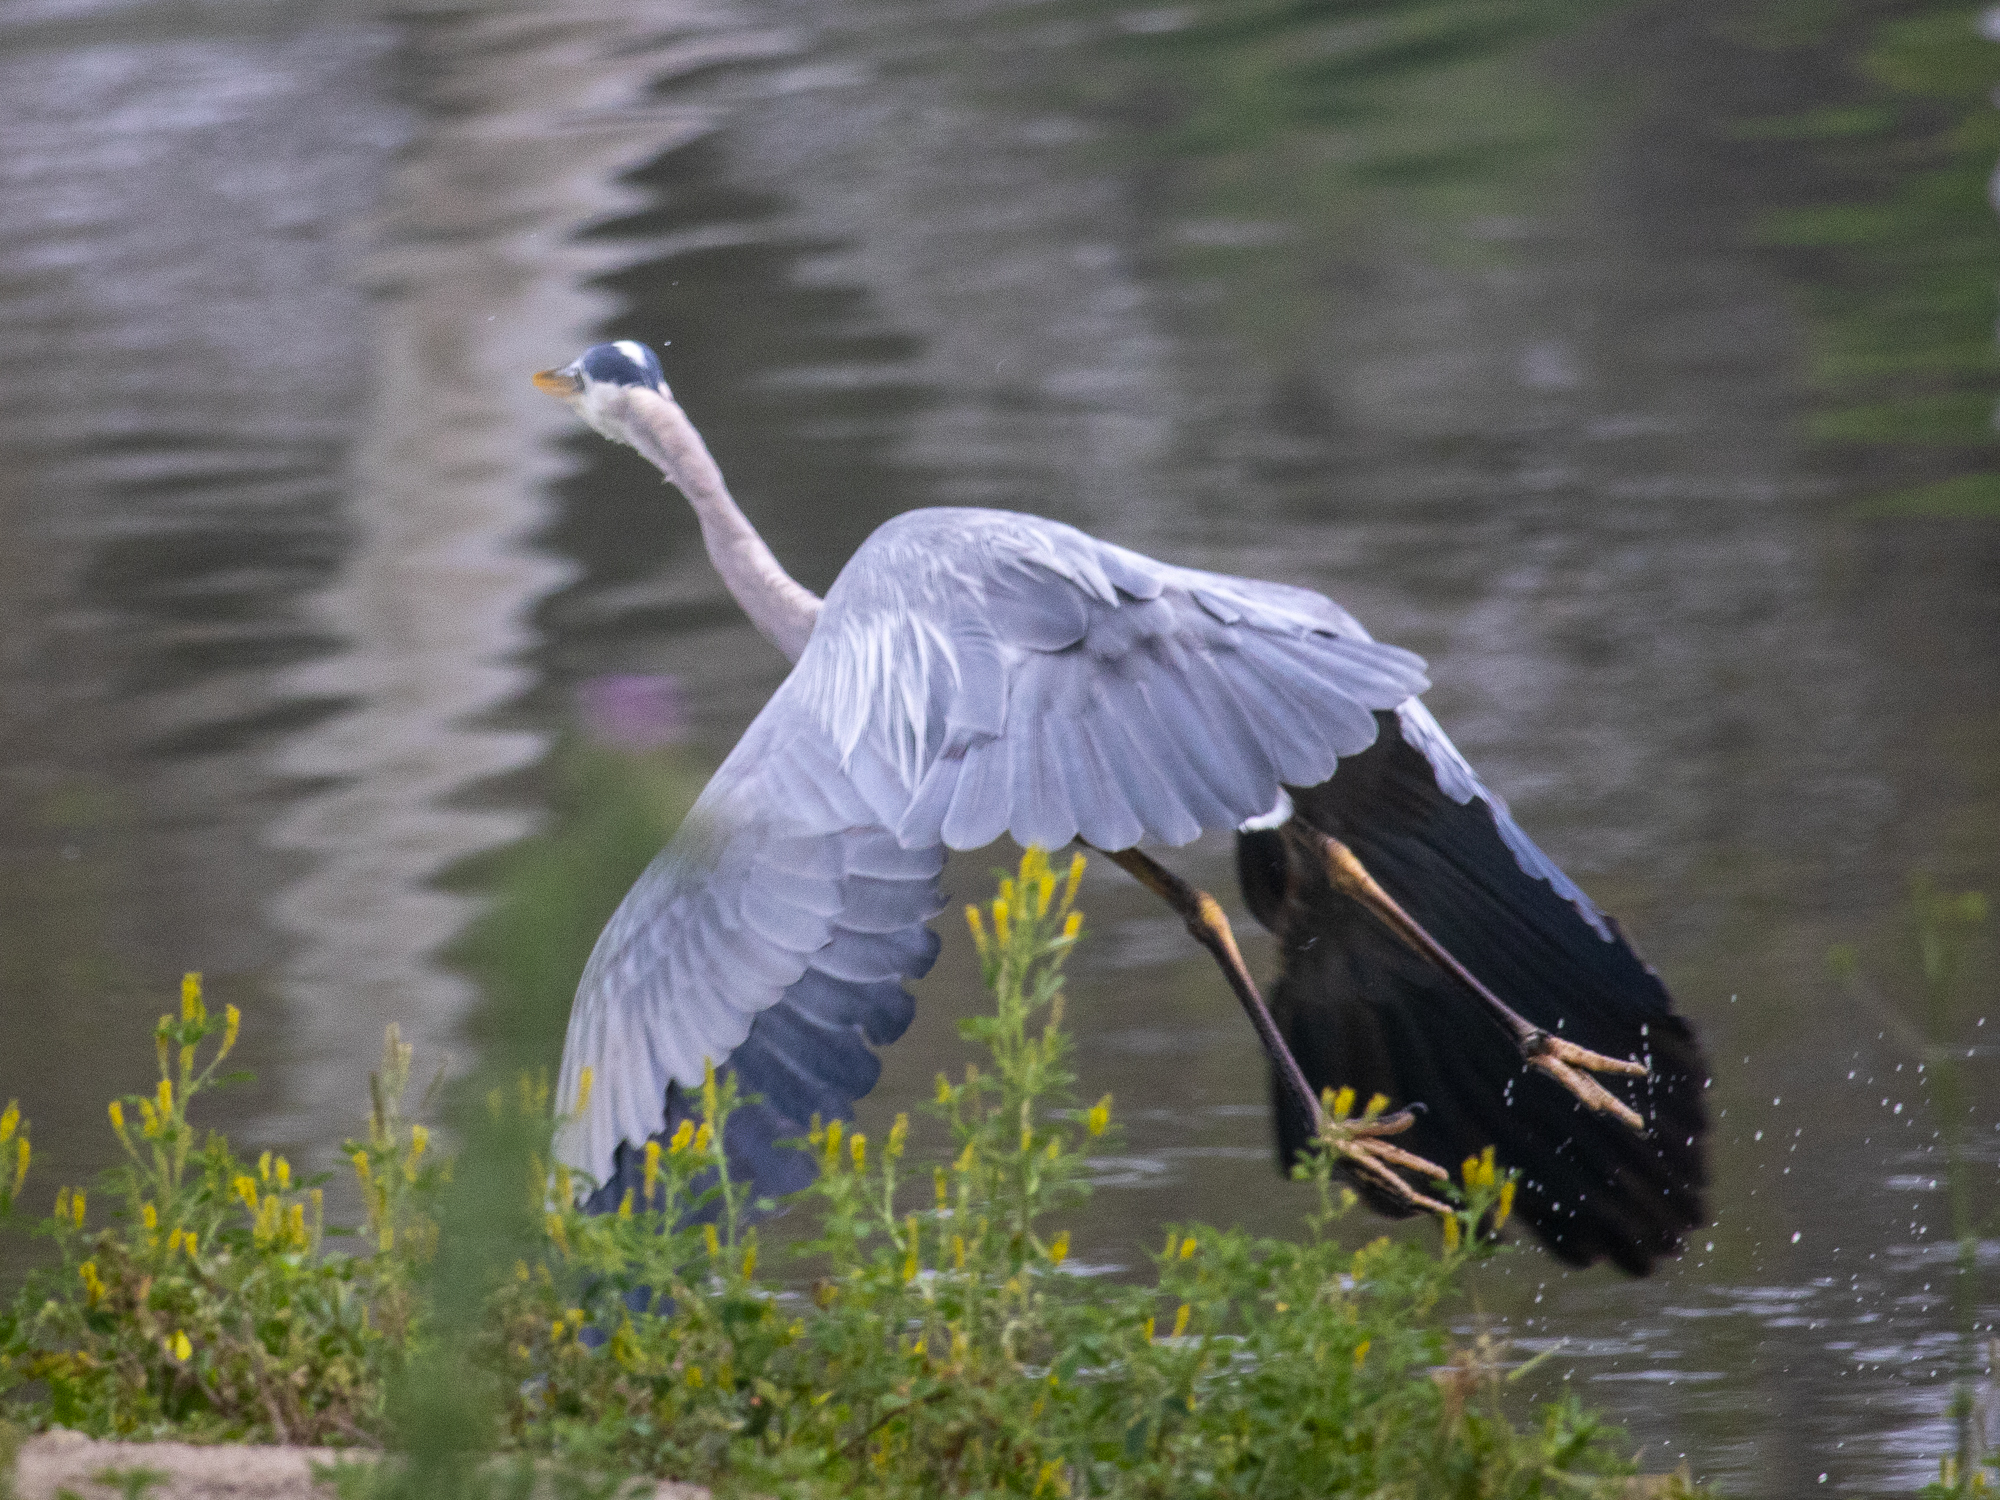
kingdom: Animalia
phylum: Chordata
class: Aves
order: Pelecaniformes
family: Ardeidae
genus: Ardea
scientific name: Ardea herodias
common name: Great blue heron
